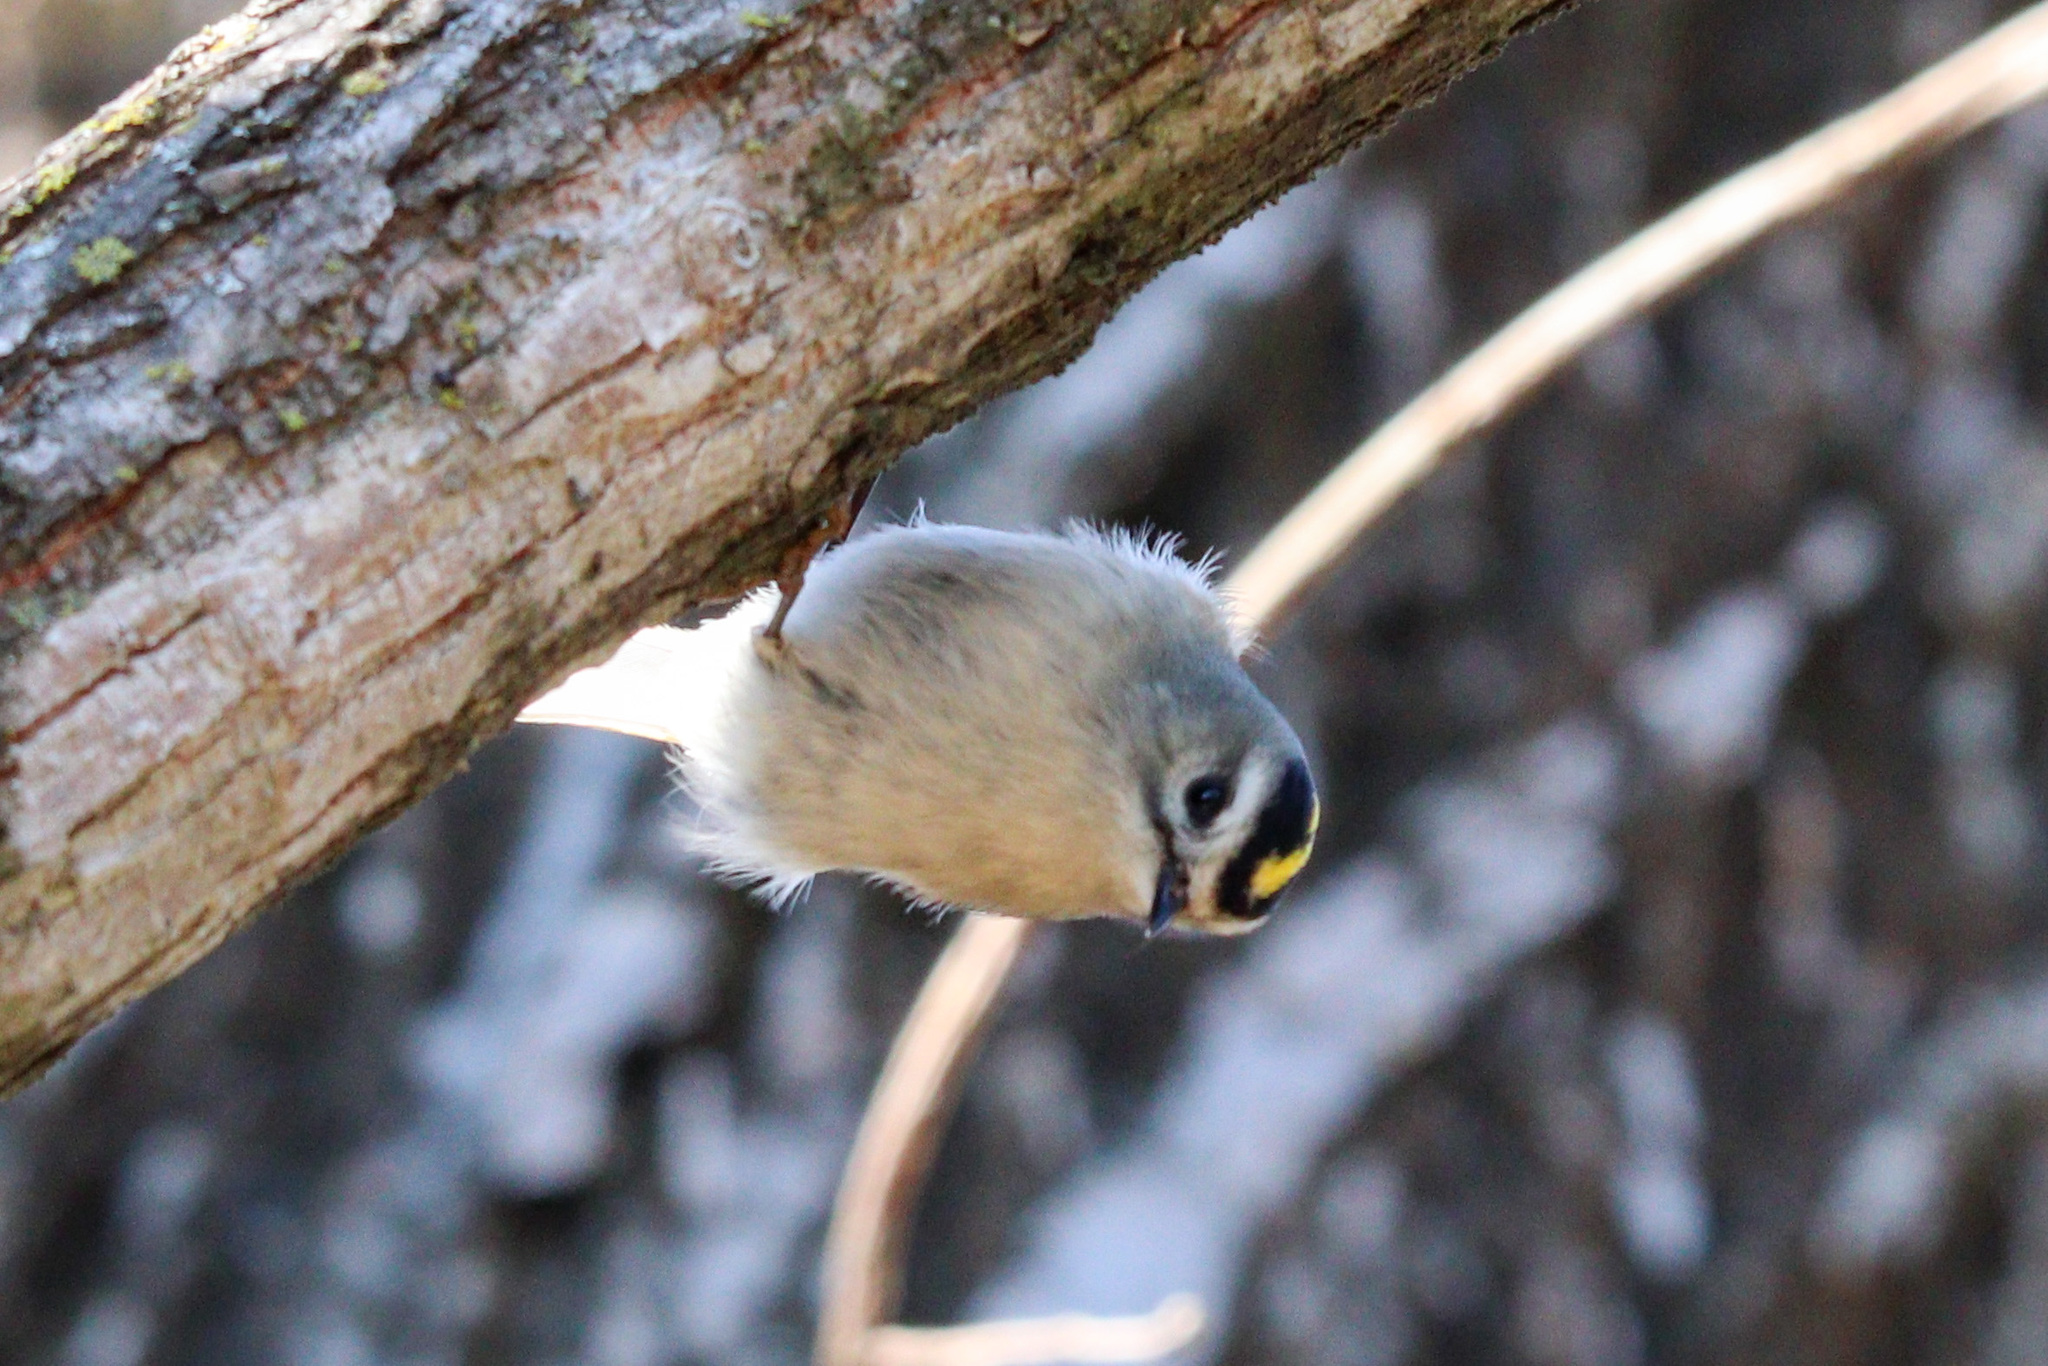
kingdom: Animalia
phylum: Chordata
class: Aves
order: Passeriformes
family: Regulidae
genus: Regulus
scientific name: Regulus satrapa
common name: Golden-crowned kinglet
